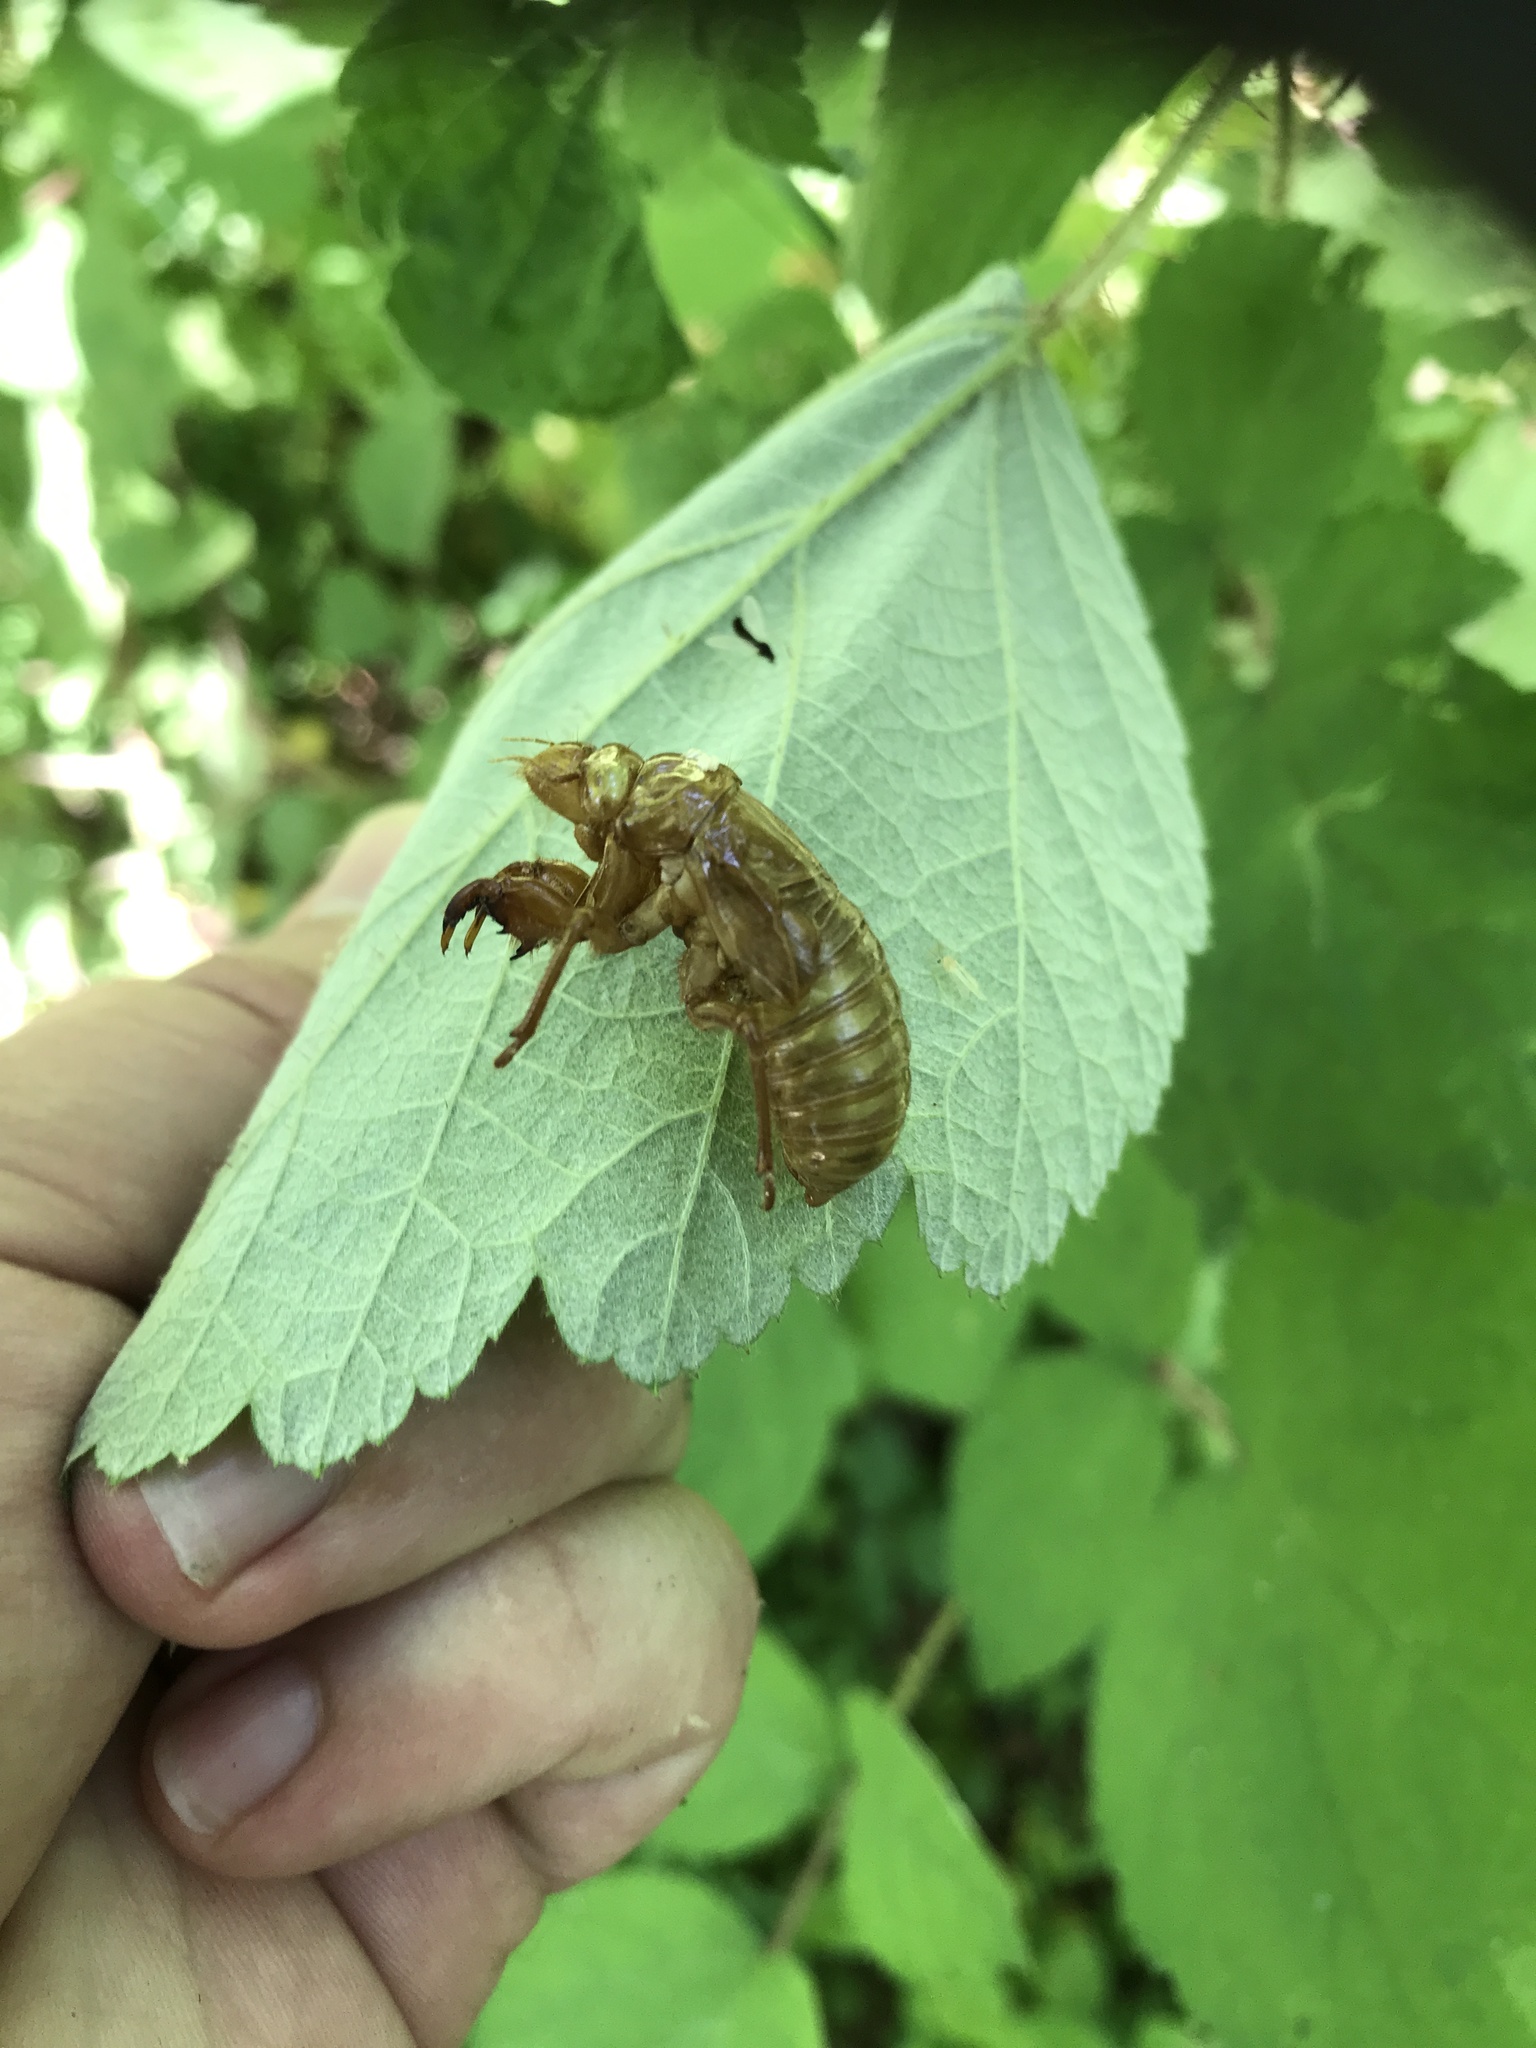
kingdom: Animalia
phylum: Arthropoda
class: Insecta
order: Hemiptera
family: Cicadidae
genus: Magicicada
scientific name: Magicicada
